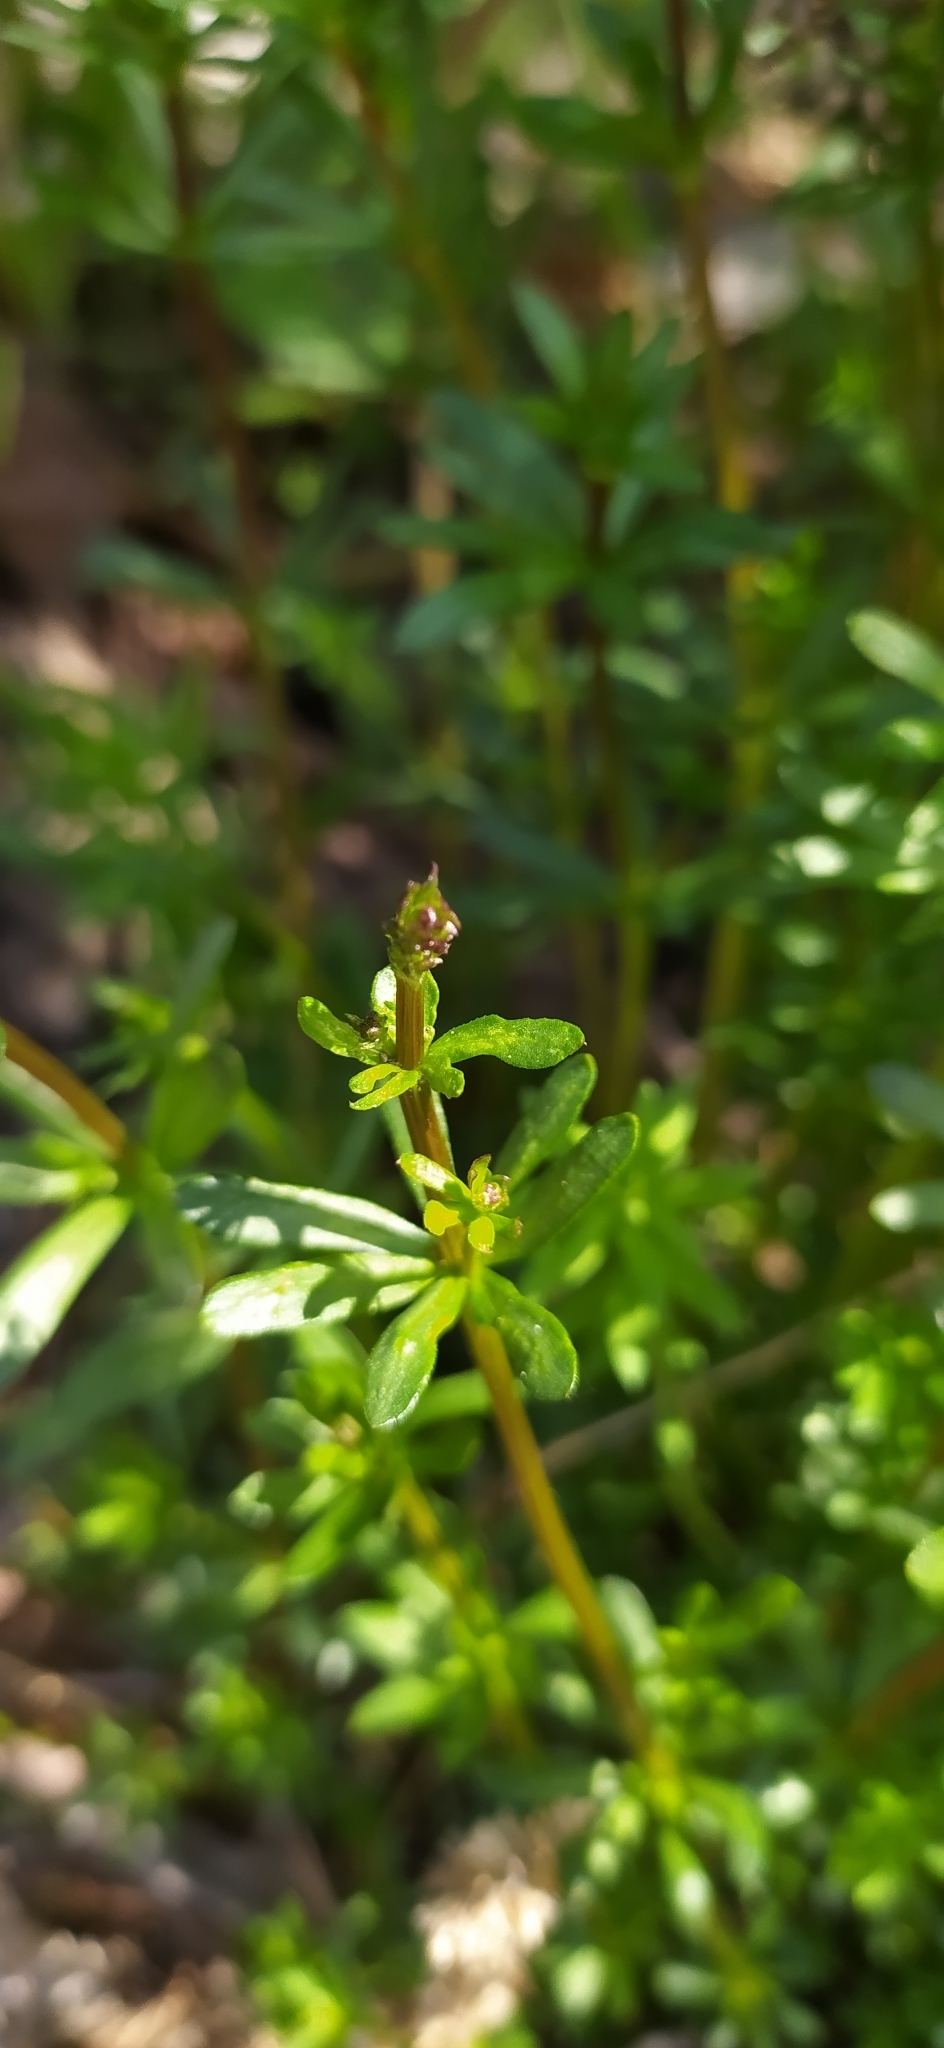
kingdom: Plantae
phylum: Tracheophyta
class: Magnoliopsida
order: Gentianales
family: Rubiaceae
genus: Galium
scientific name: Galium mollugo
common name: Hedge bedstraw
